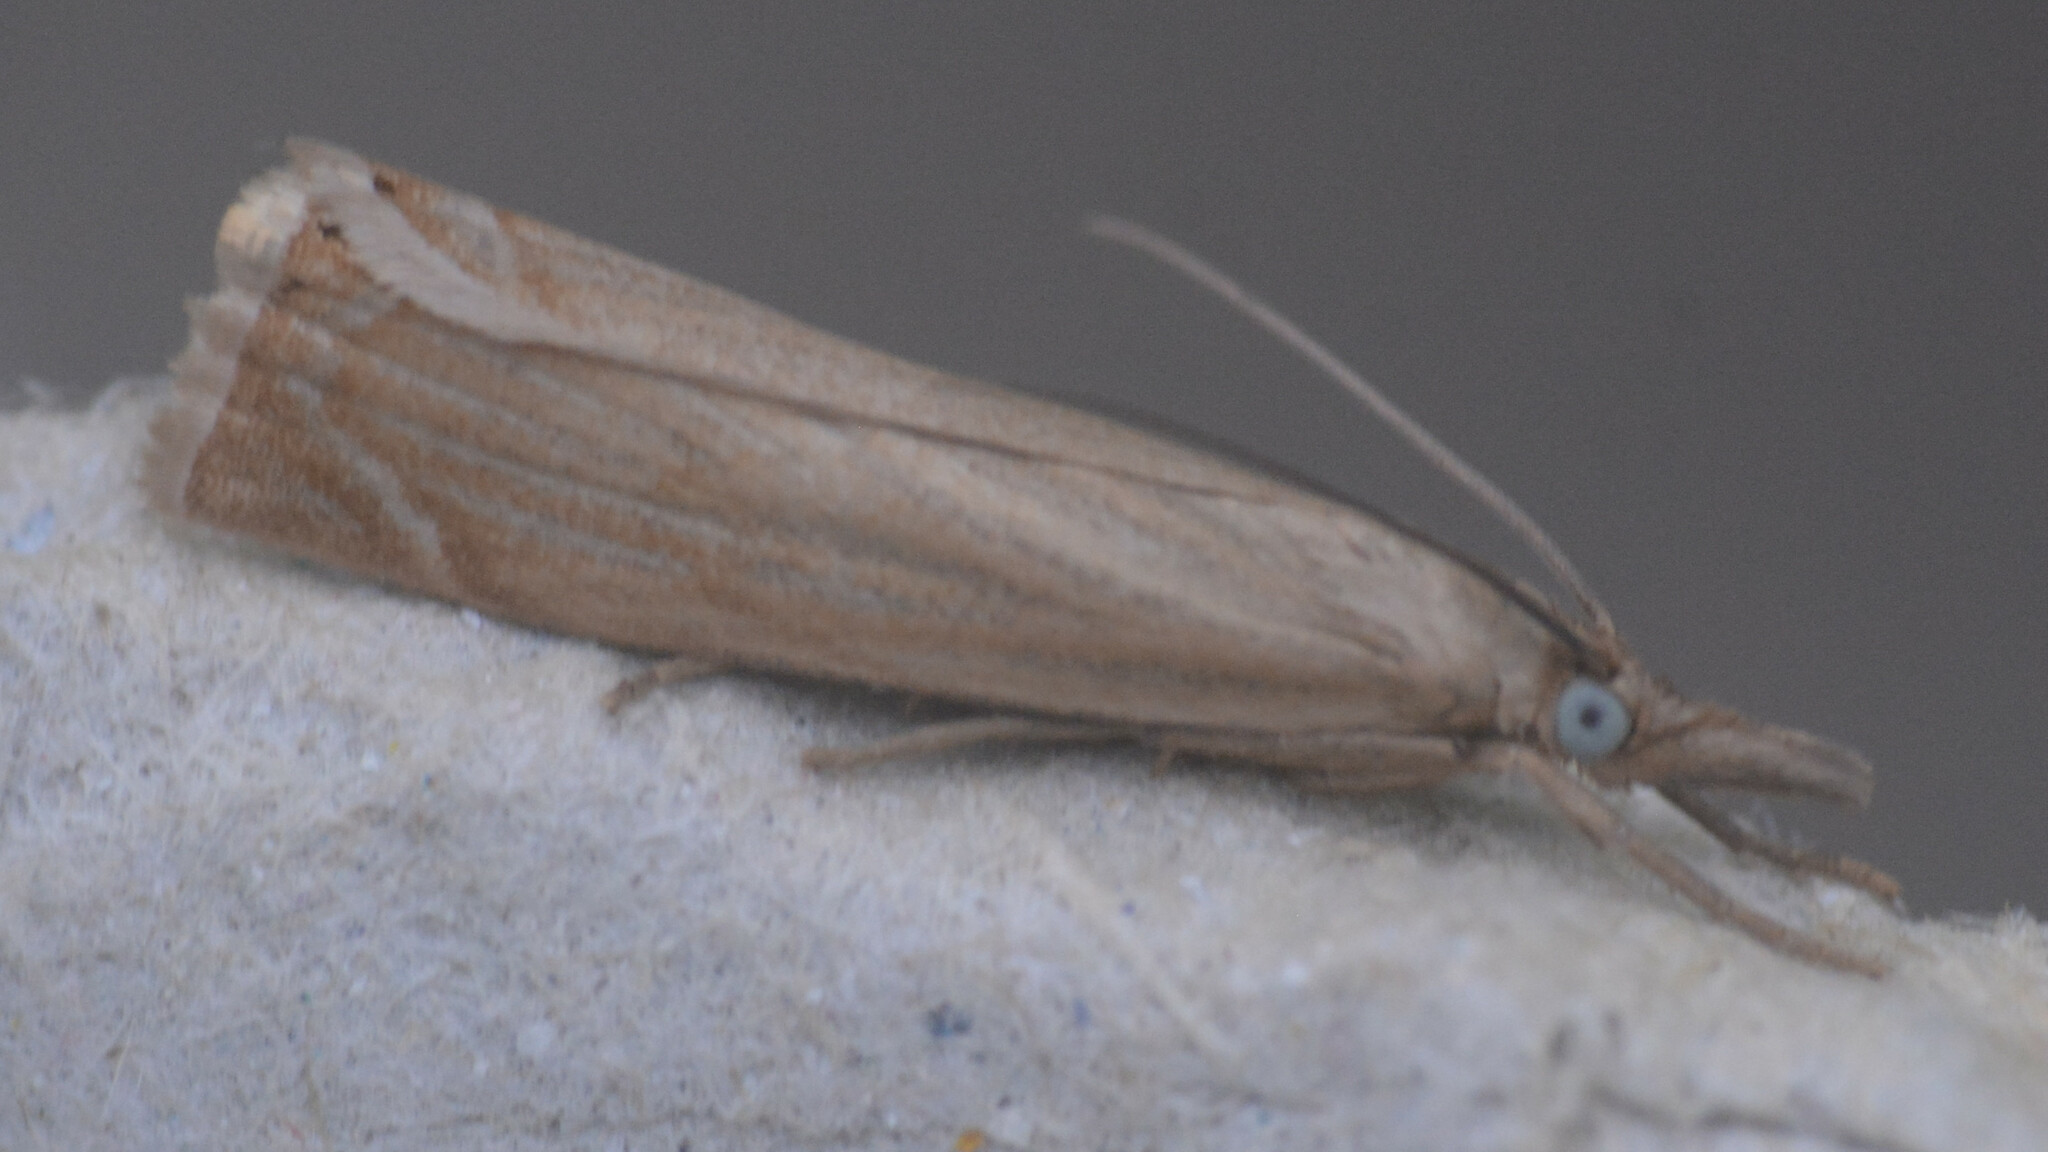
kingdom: Animalia
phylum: Arthropoda
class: Insecta
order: Lepidoptera
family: Crambidae
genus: Chrysoteuchia
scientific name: Chrysoteuchia culmella
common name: Garden grass-veneer
